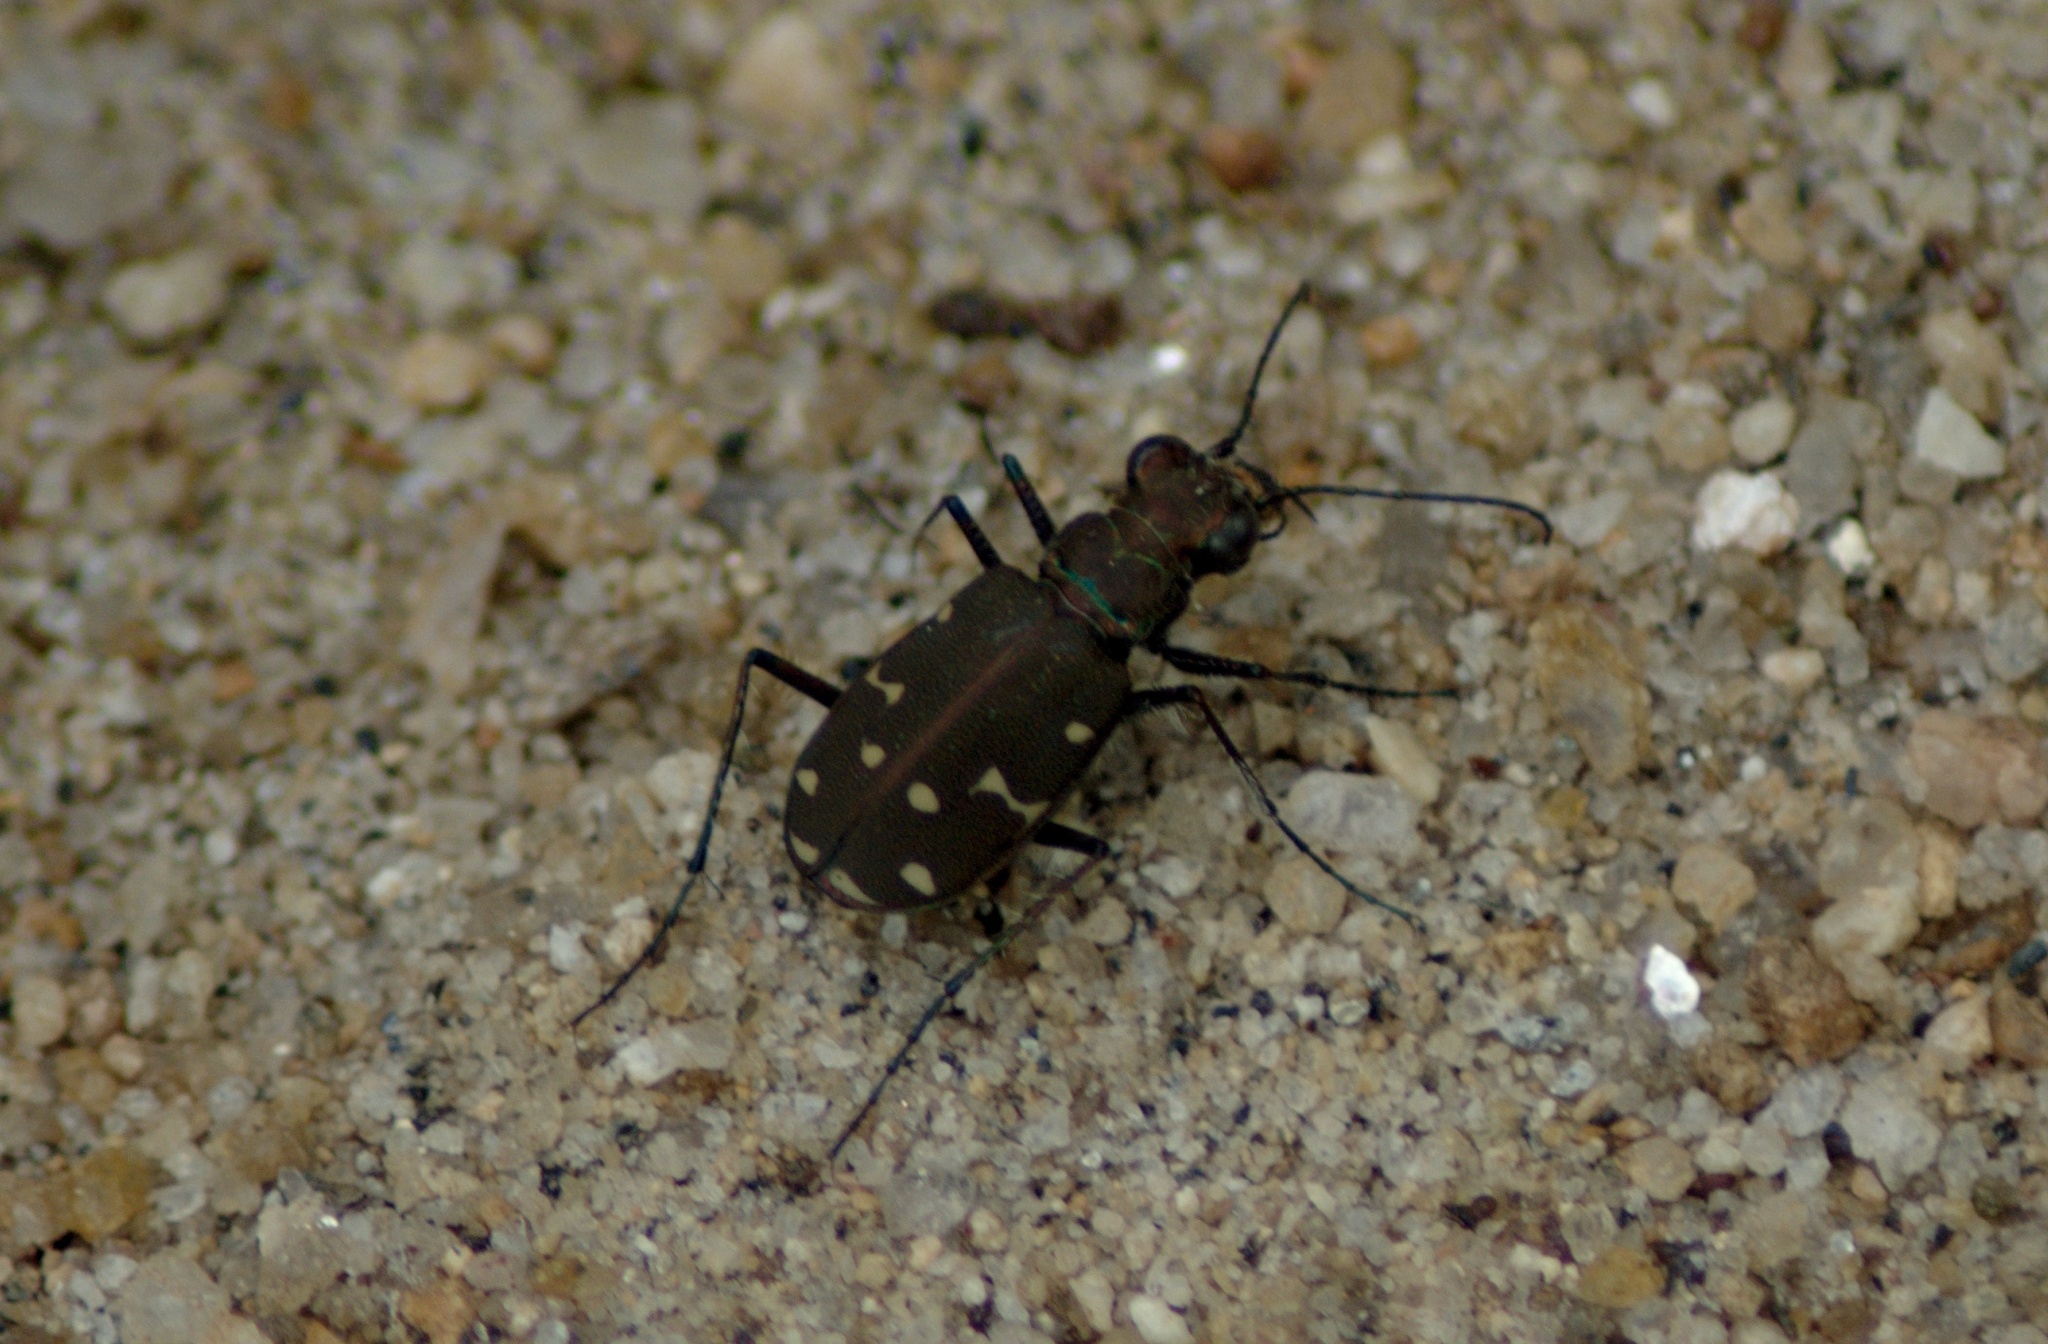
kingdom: Animalia
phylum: Arthropoda
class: Insecta
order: Coleoptera
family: Carabidae
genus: Cicindela
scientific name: Cicindela duodecimguttata
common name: Twelve-spotted tiger beetle
